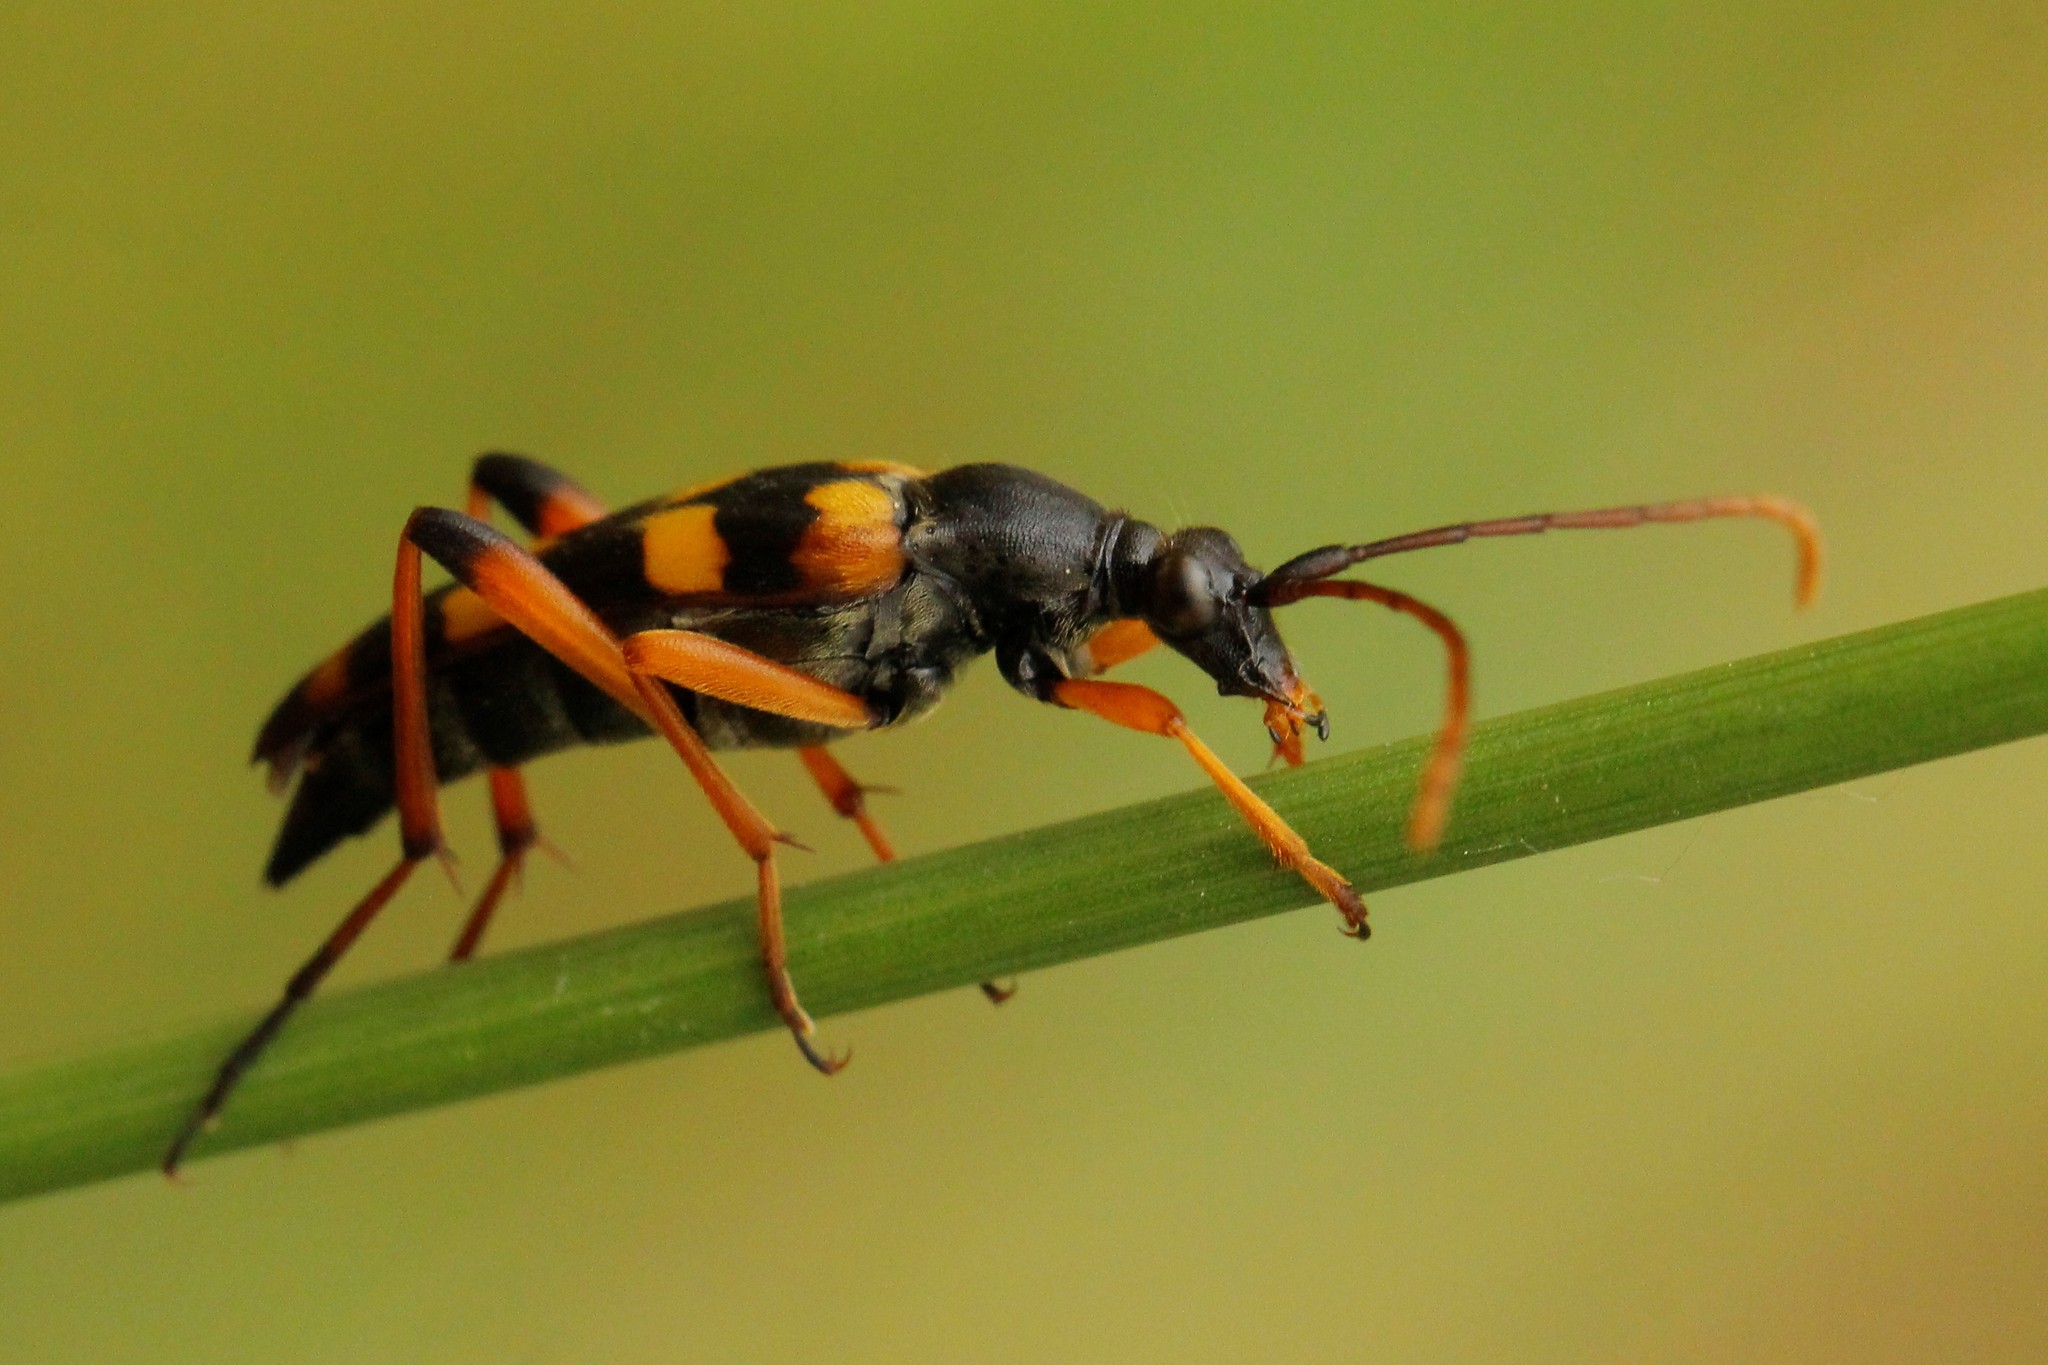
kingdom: Animalia
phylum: Arthropoda
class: Insecta
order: Coleoptera
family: Cerambycidae
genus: Strangalia
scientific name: Strangalia attenuata
